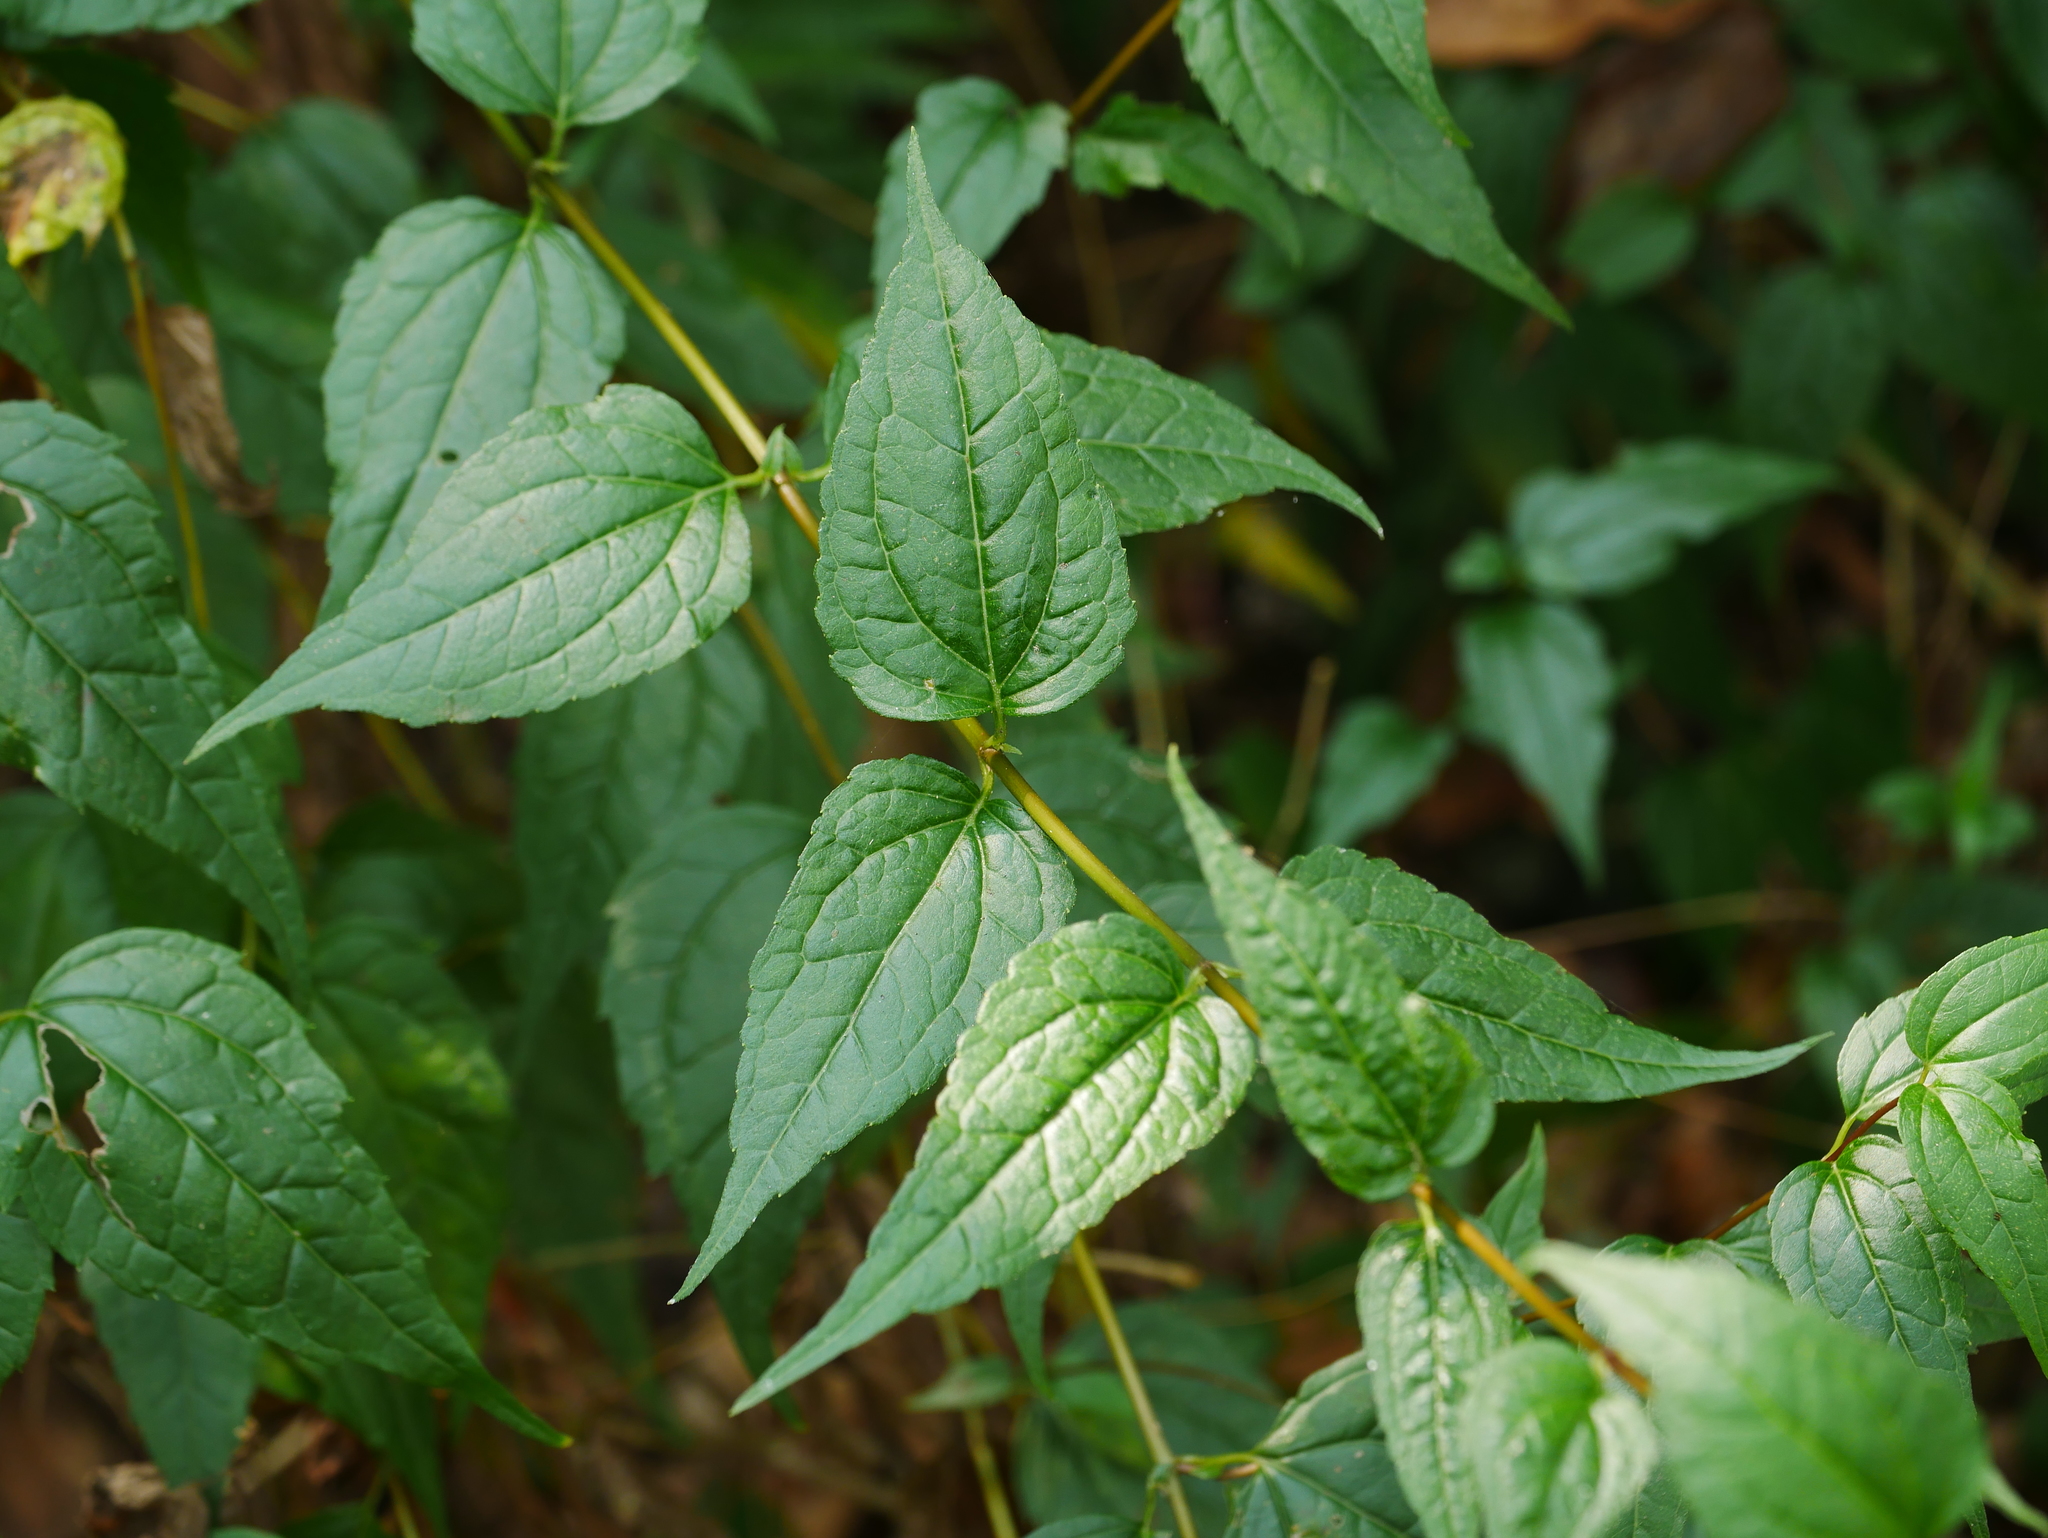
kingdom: Plantae
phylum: Tracheophyta
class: Magnoliopsida
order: Asterales
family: Asteraceae
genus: Eupatorium
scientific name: Eupatorium tashiroi
